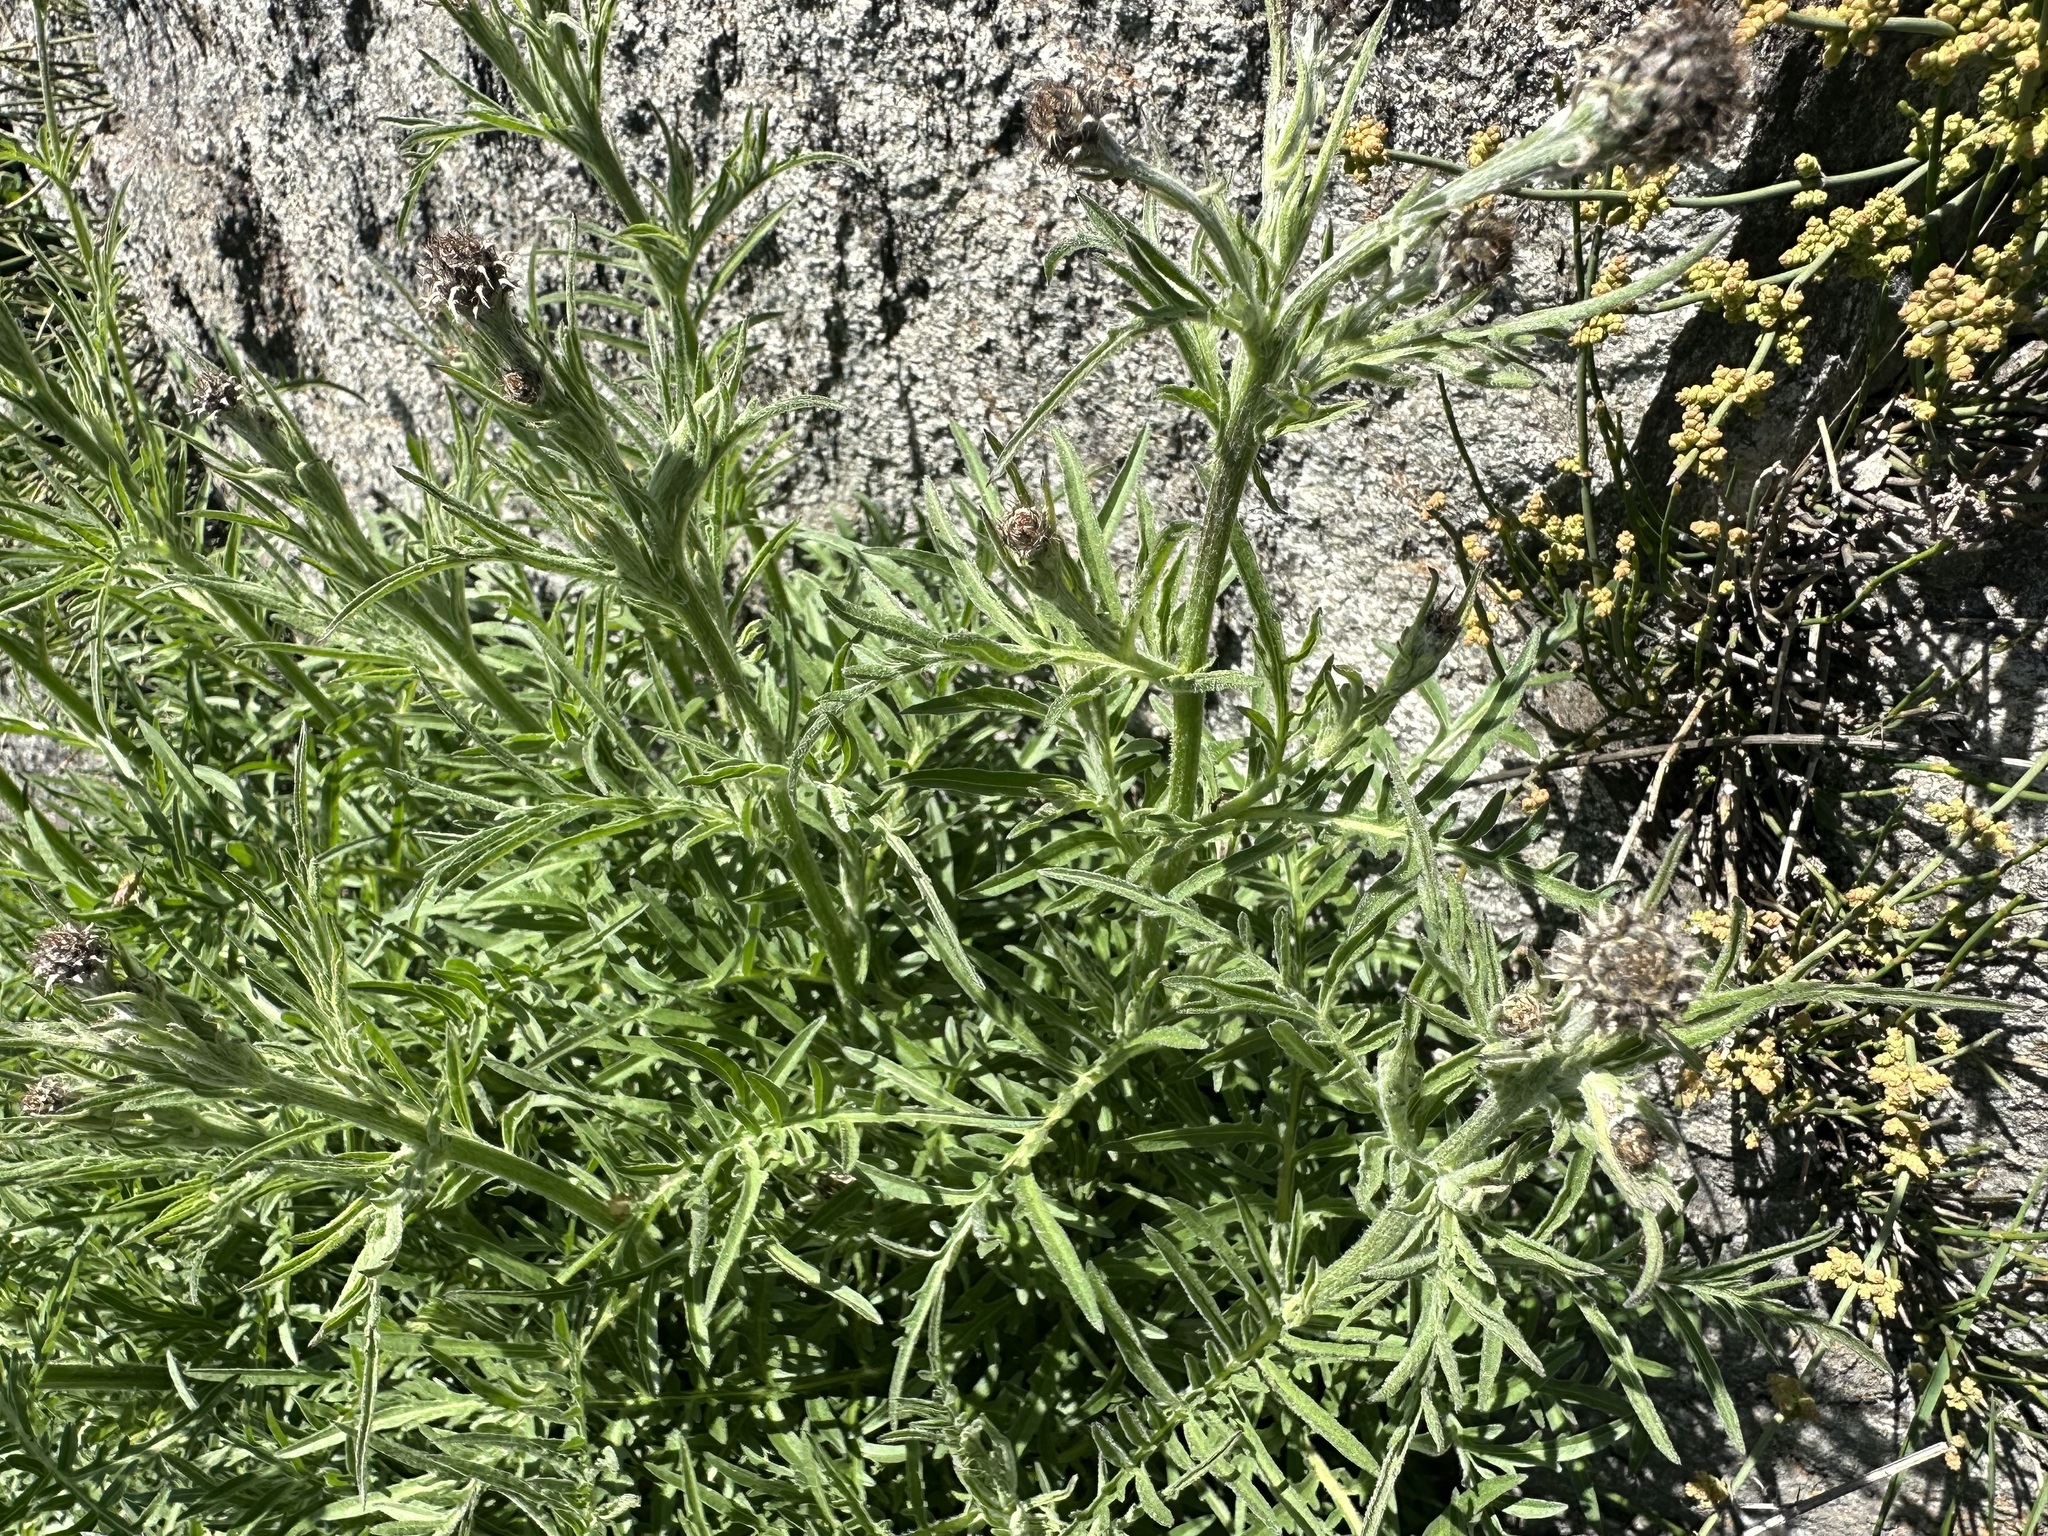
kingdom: Plantae
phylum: Tracheophyta
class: Magnoliopsida
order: Asterales
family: Asteraceae
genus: Centaurea
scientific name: Centaurea scabiosa
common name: Greater knapweed
